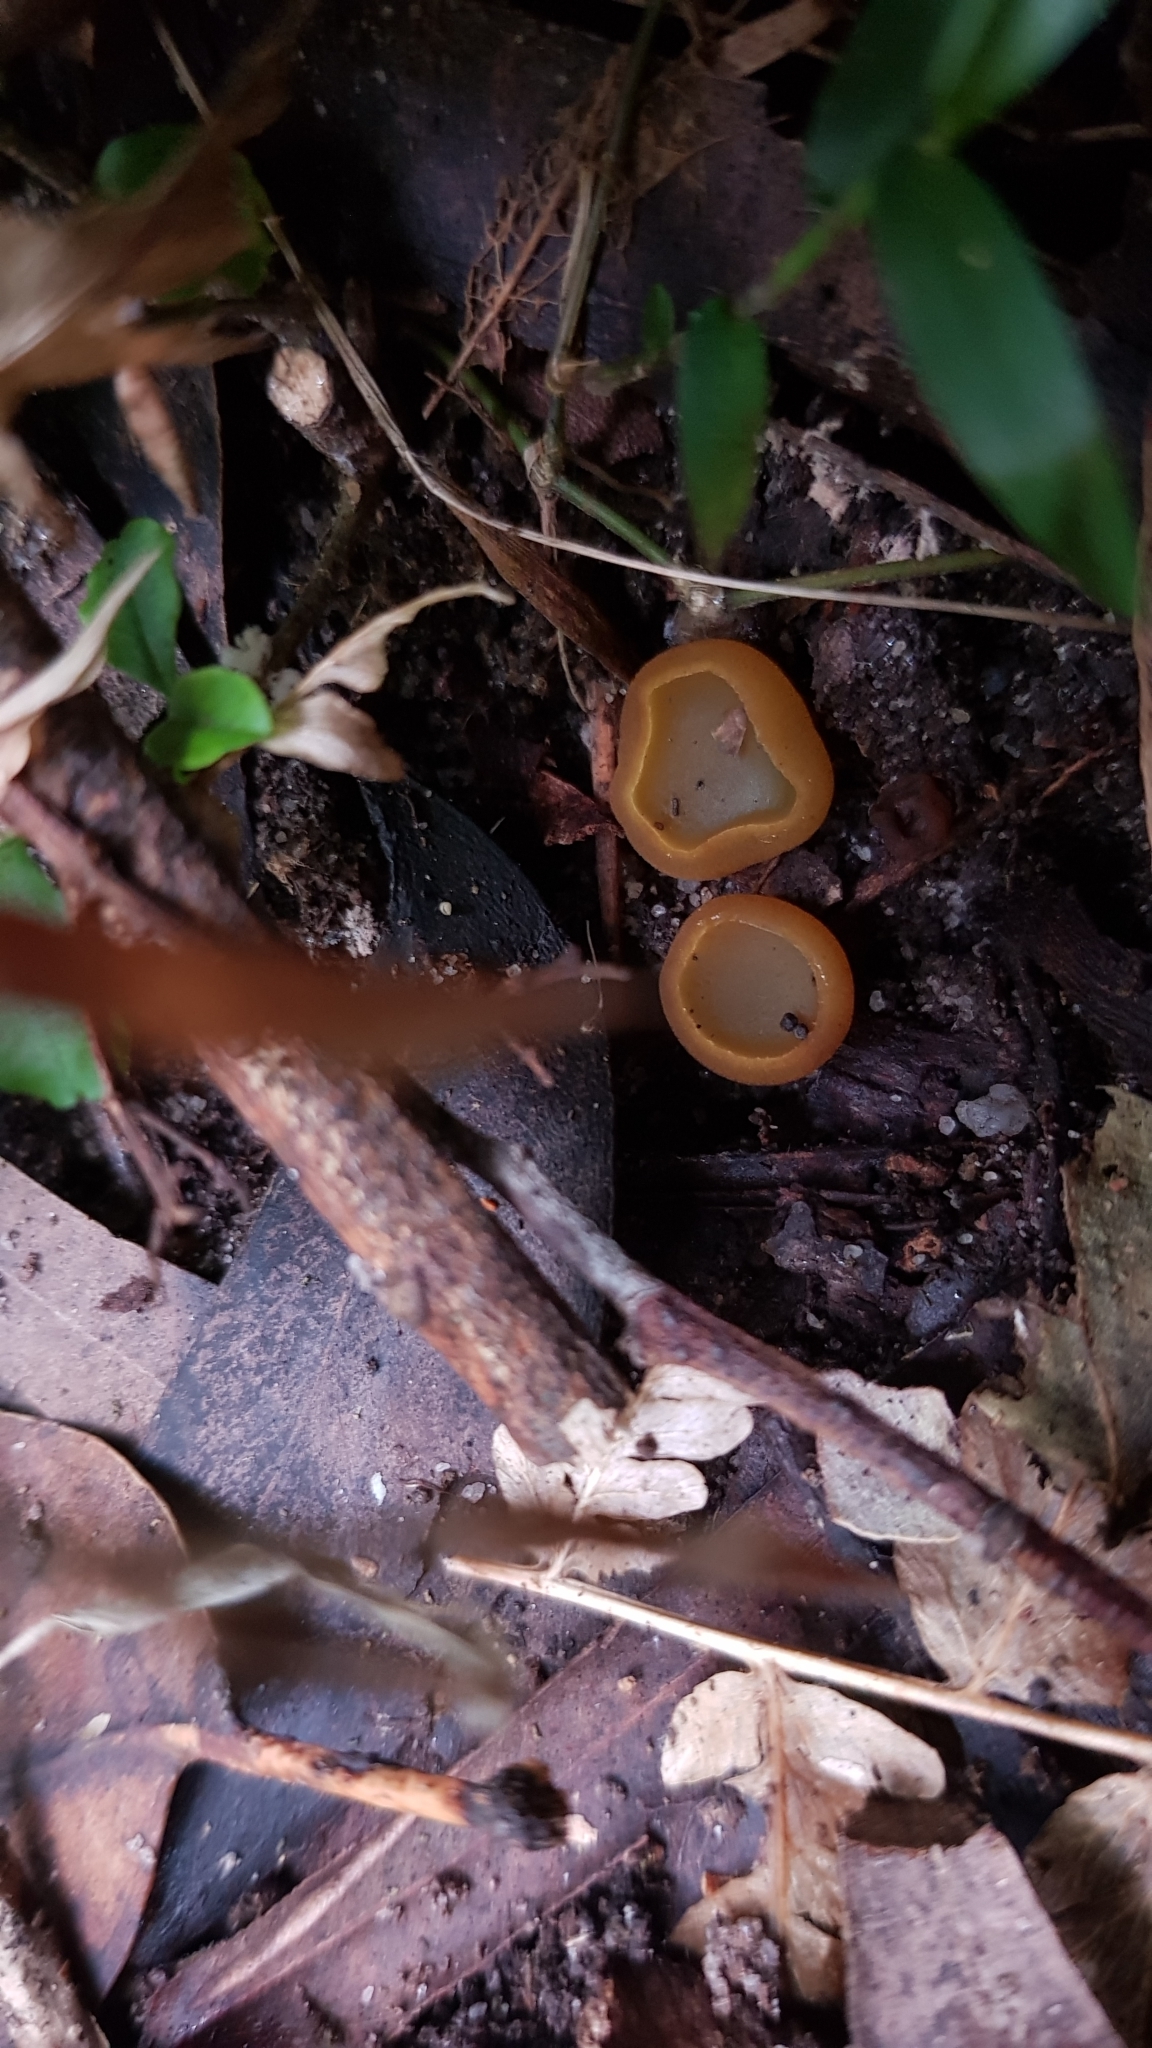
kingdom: Fungi
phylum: Ascomycota
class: Pezizomycetes
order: Pezizales
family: Pyronemataceae
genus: Aleurina
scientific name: Aleurina ferruginea
